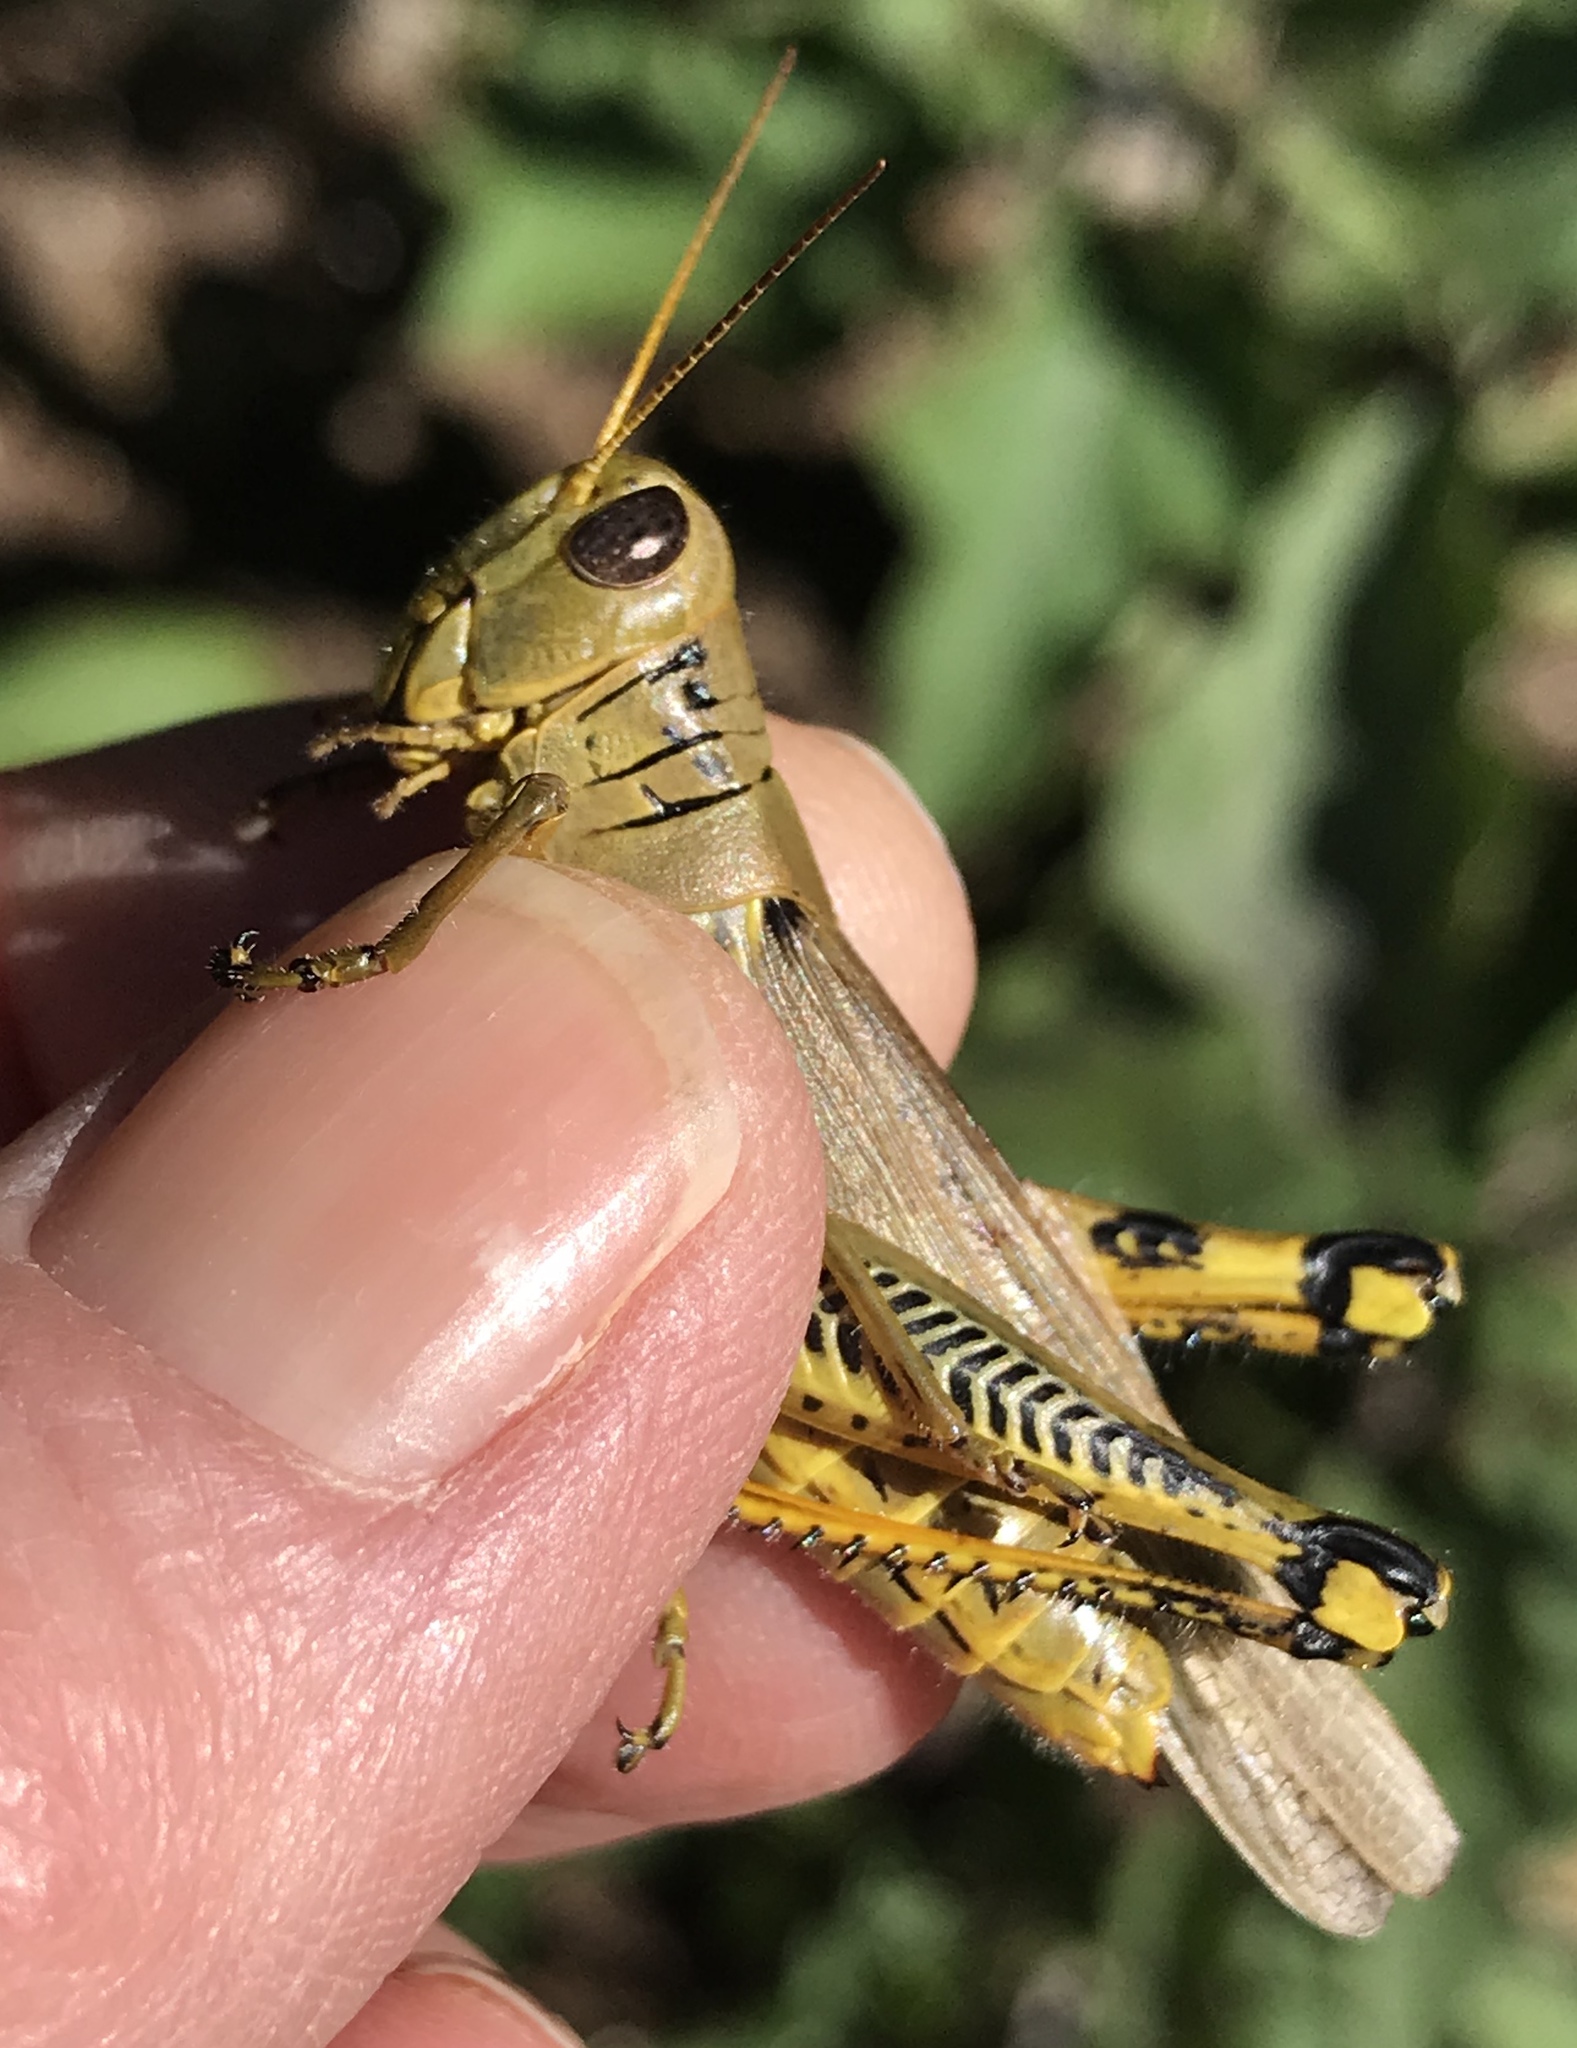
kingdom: Animalia
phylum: Arthropoda
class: Insecta
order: Orthoptera
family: Acrididae
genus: Melanoplus
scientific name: Melanoplus differentialis
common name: Differential grasshopper
